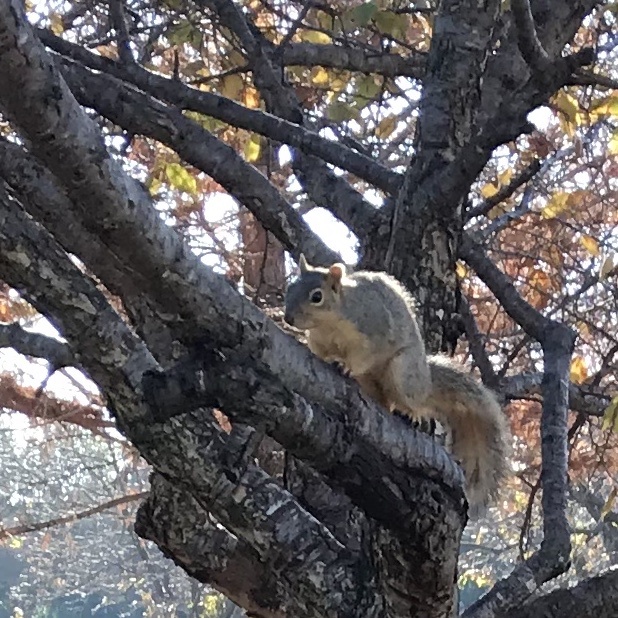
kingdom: Animalia
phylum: Chordata
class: Mammalia
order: Rodentia
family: Sciuridae
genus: Sciurus
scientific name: Sciurus niger
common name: Fox squirrel
